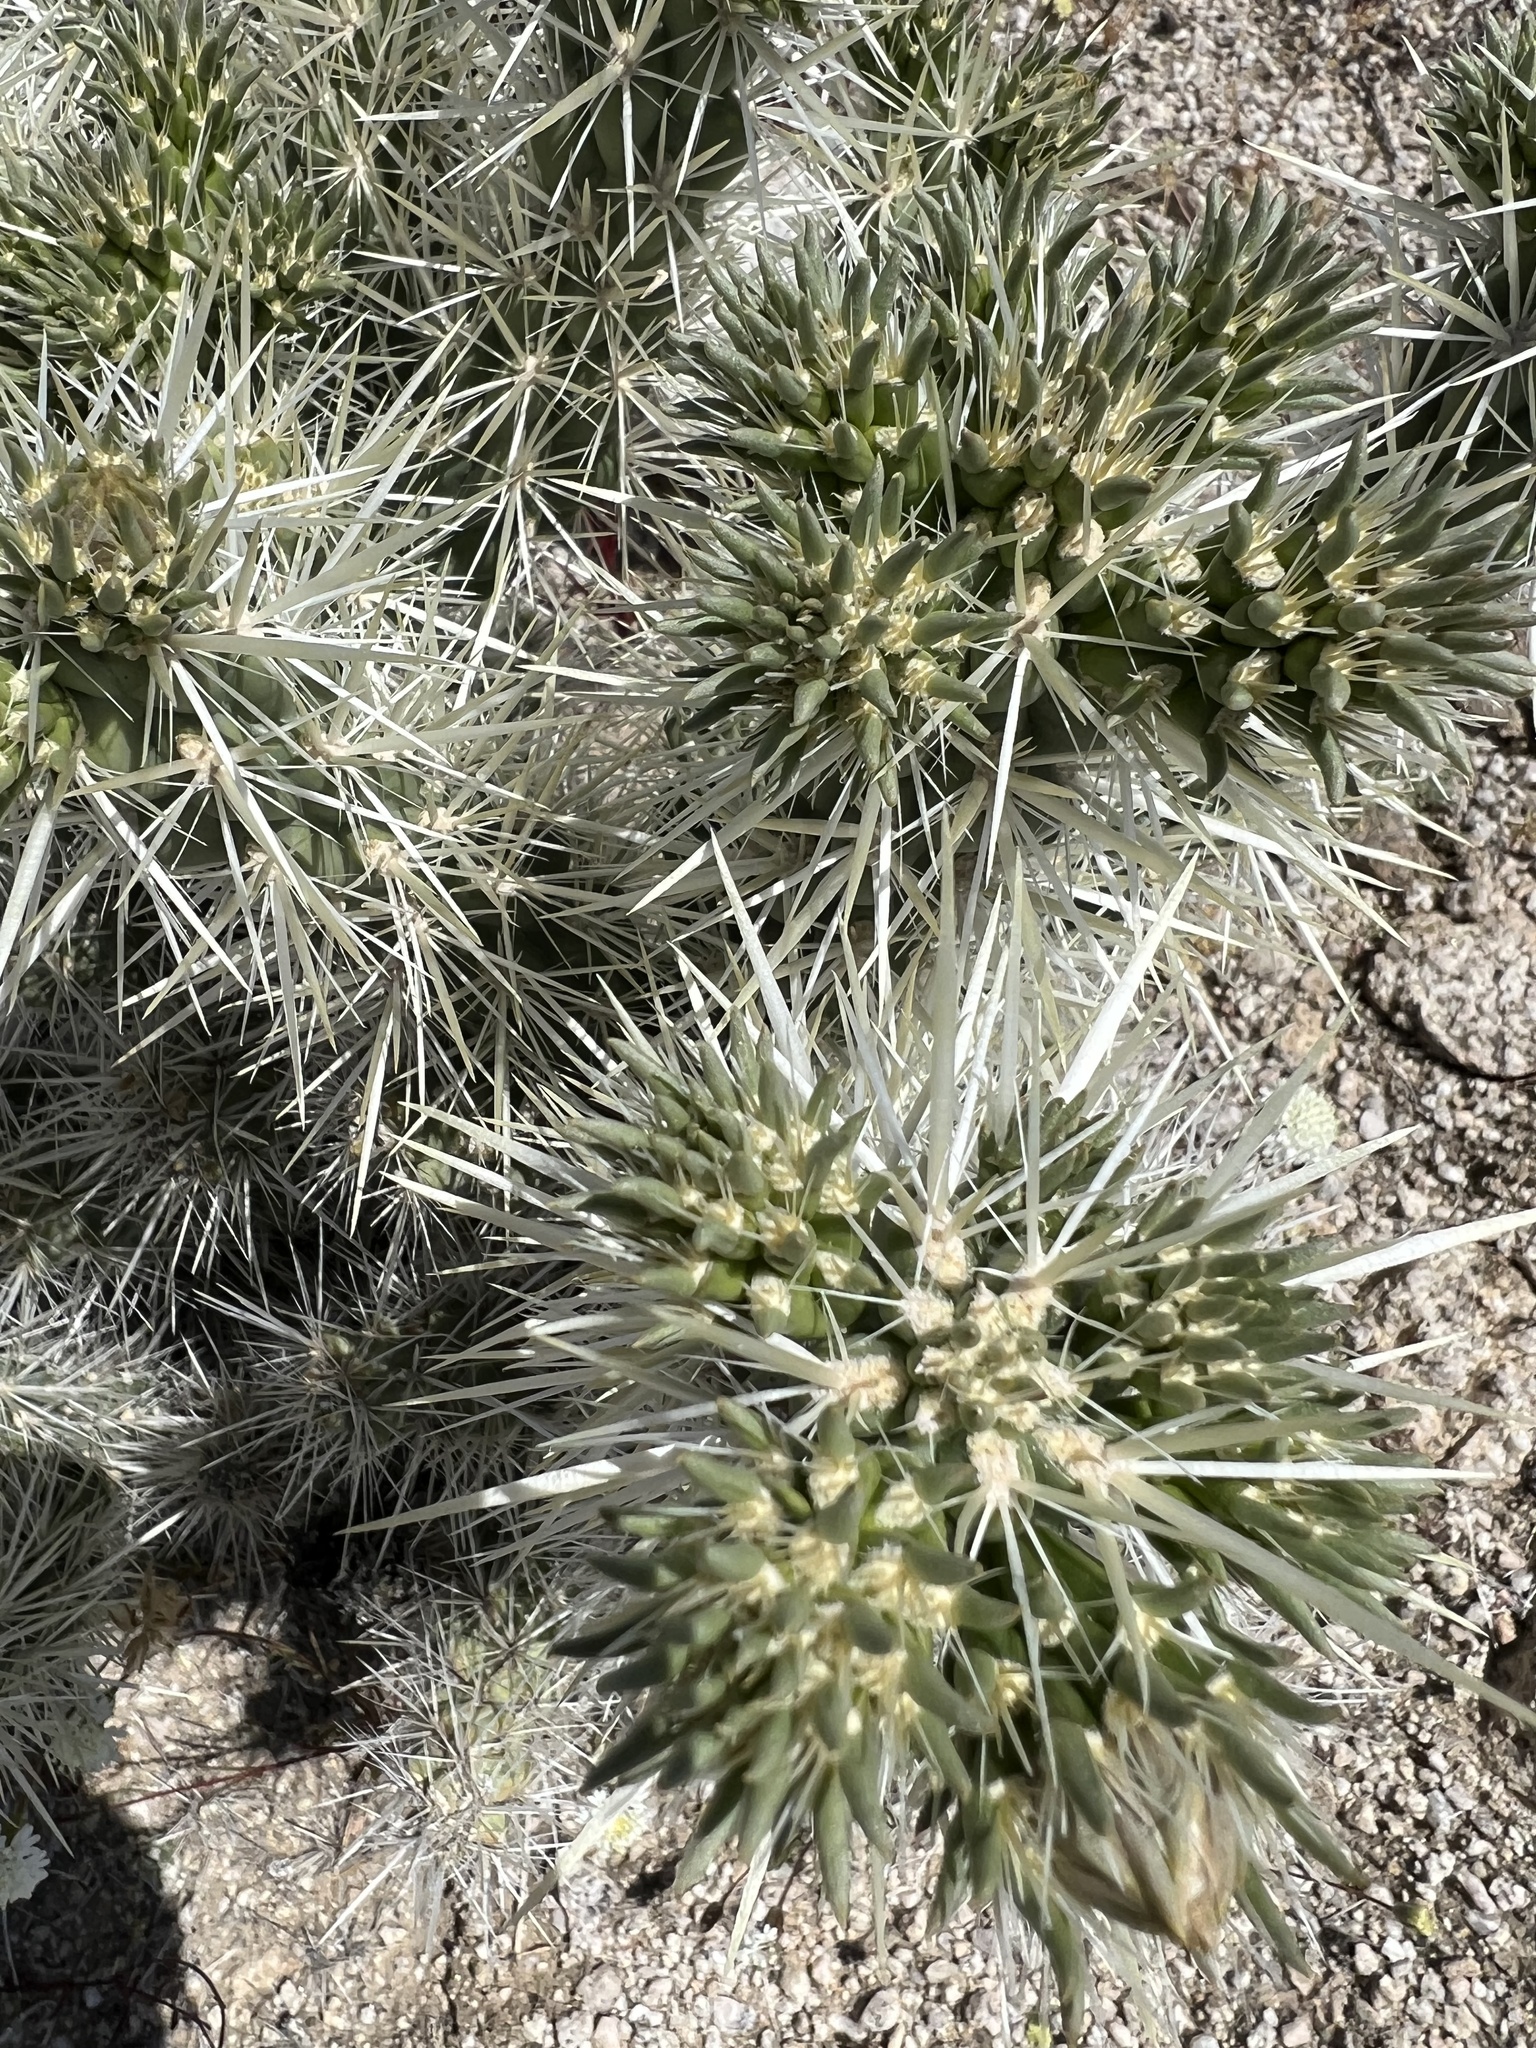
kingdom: Plantae
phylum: Tracheophyta
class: Magnoliopsida
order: Caryophyllales
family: Cactaceae
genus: Cylindropuntia
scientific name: Cylindropuntia echinocarpa
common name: Ground cholla
